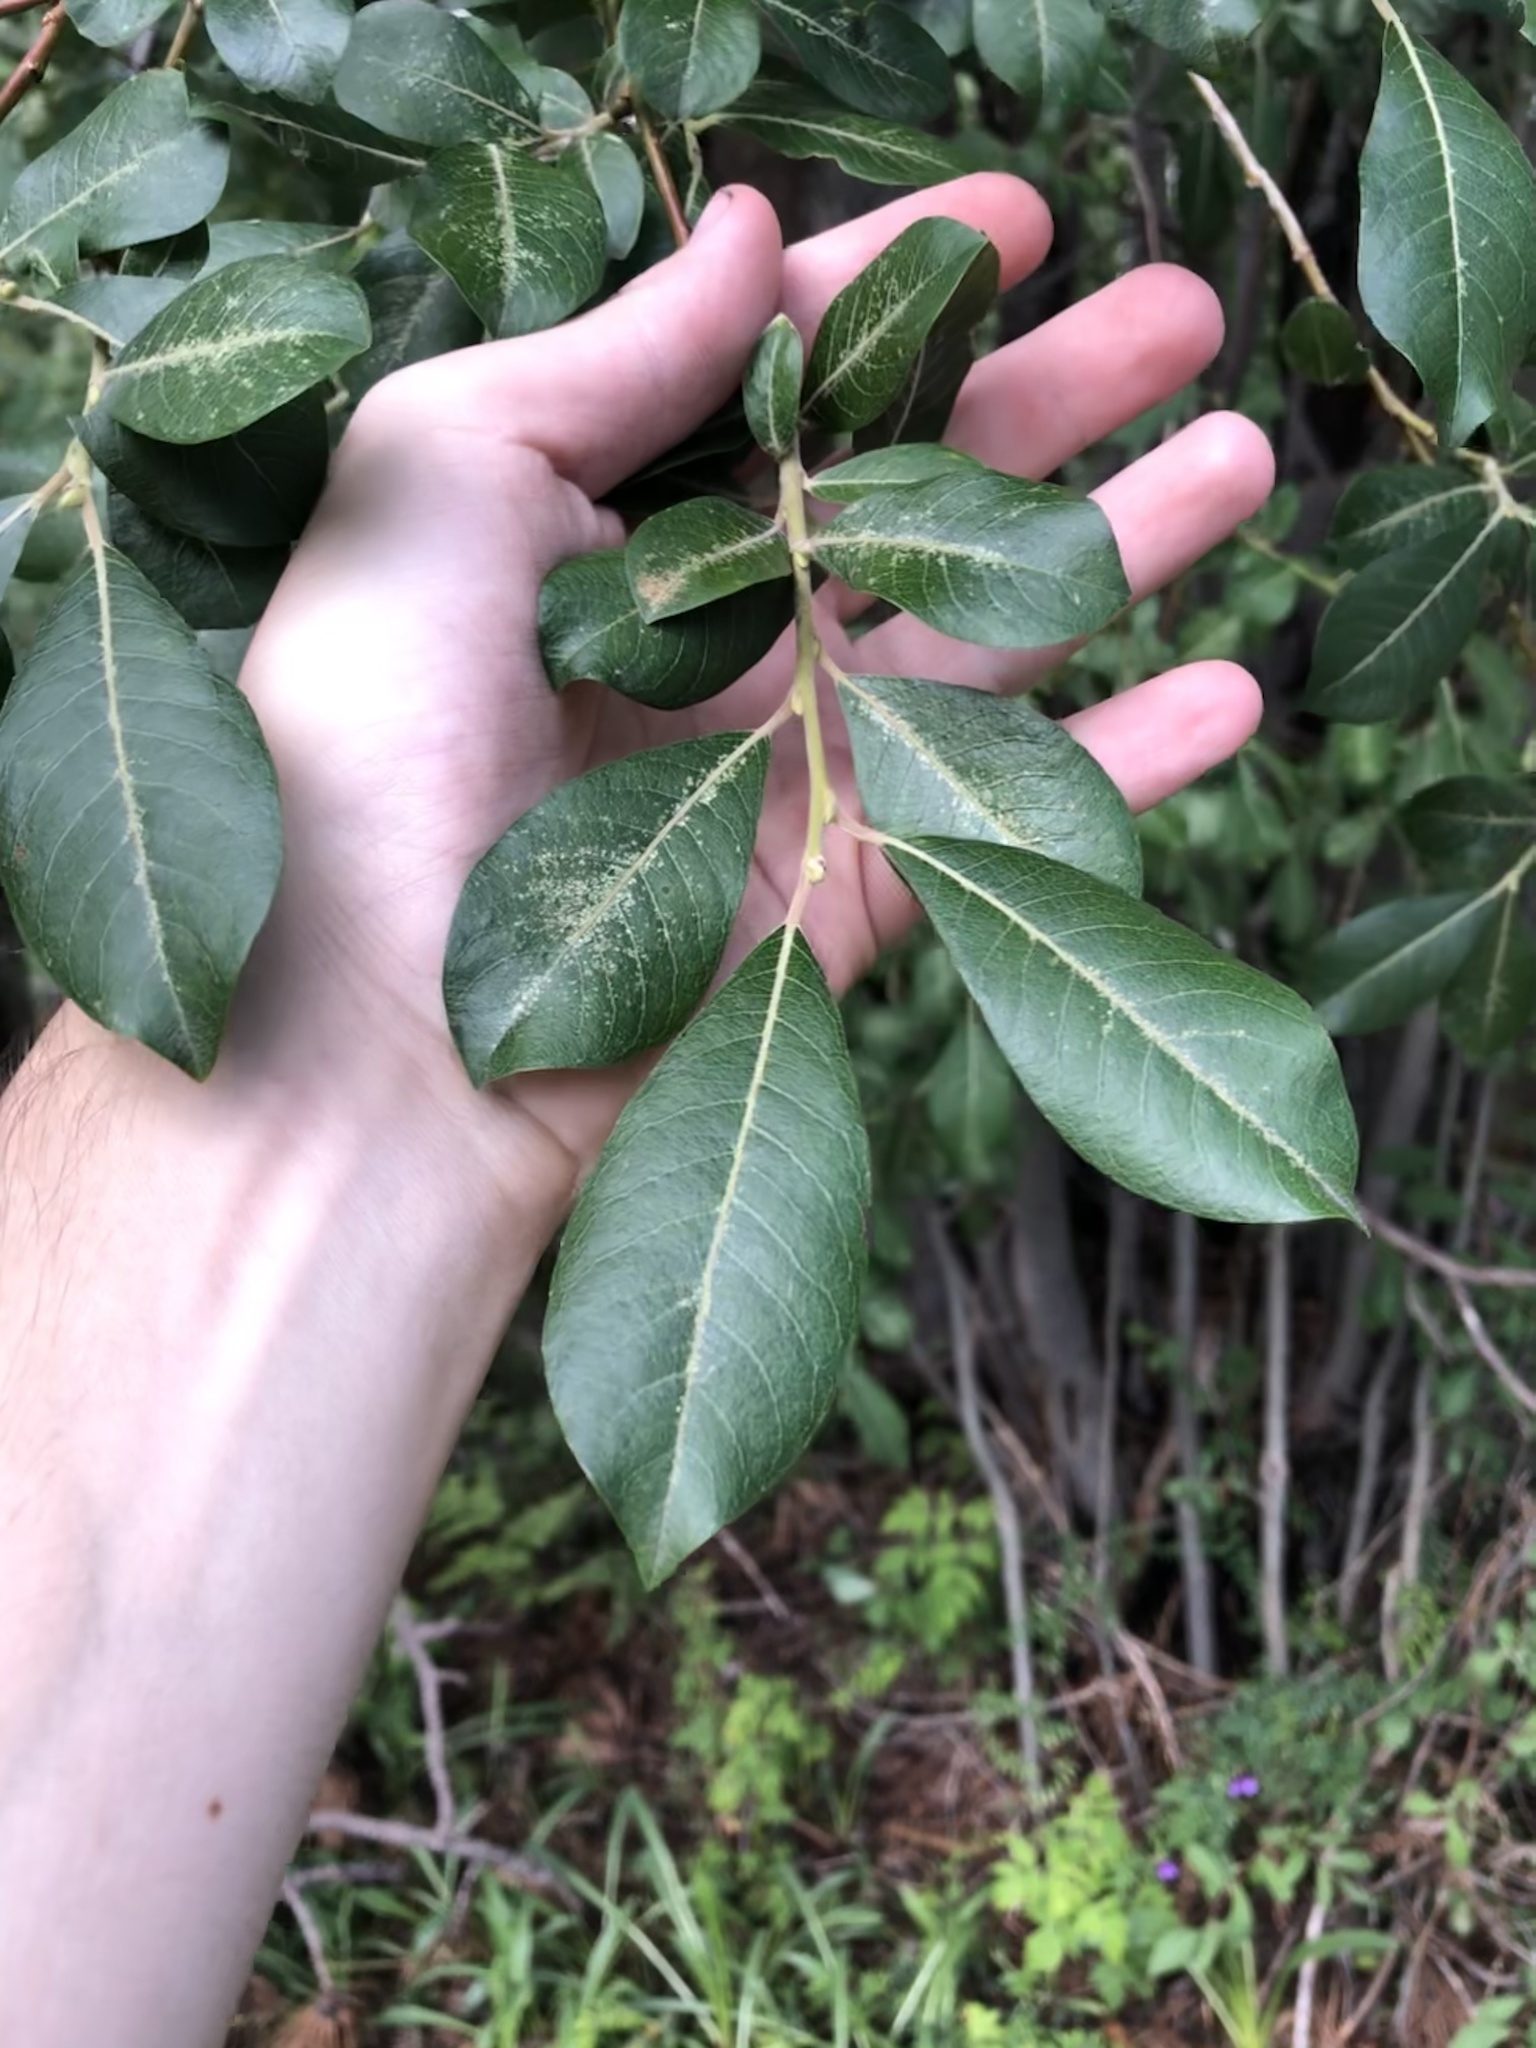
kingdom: Plantae
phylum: Tracheophyta
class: Magnoliopsida
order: Malpighiales
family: Salicaceae
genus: Salix
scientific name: Salix scouleriana
